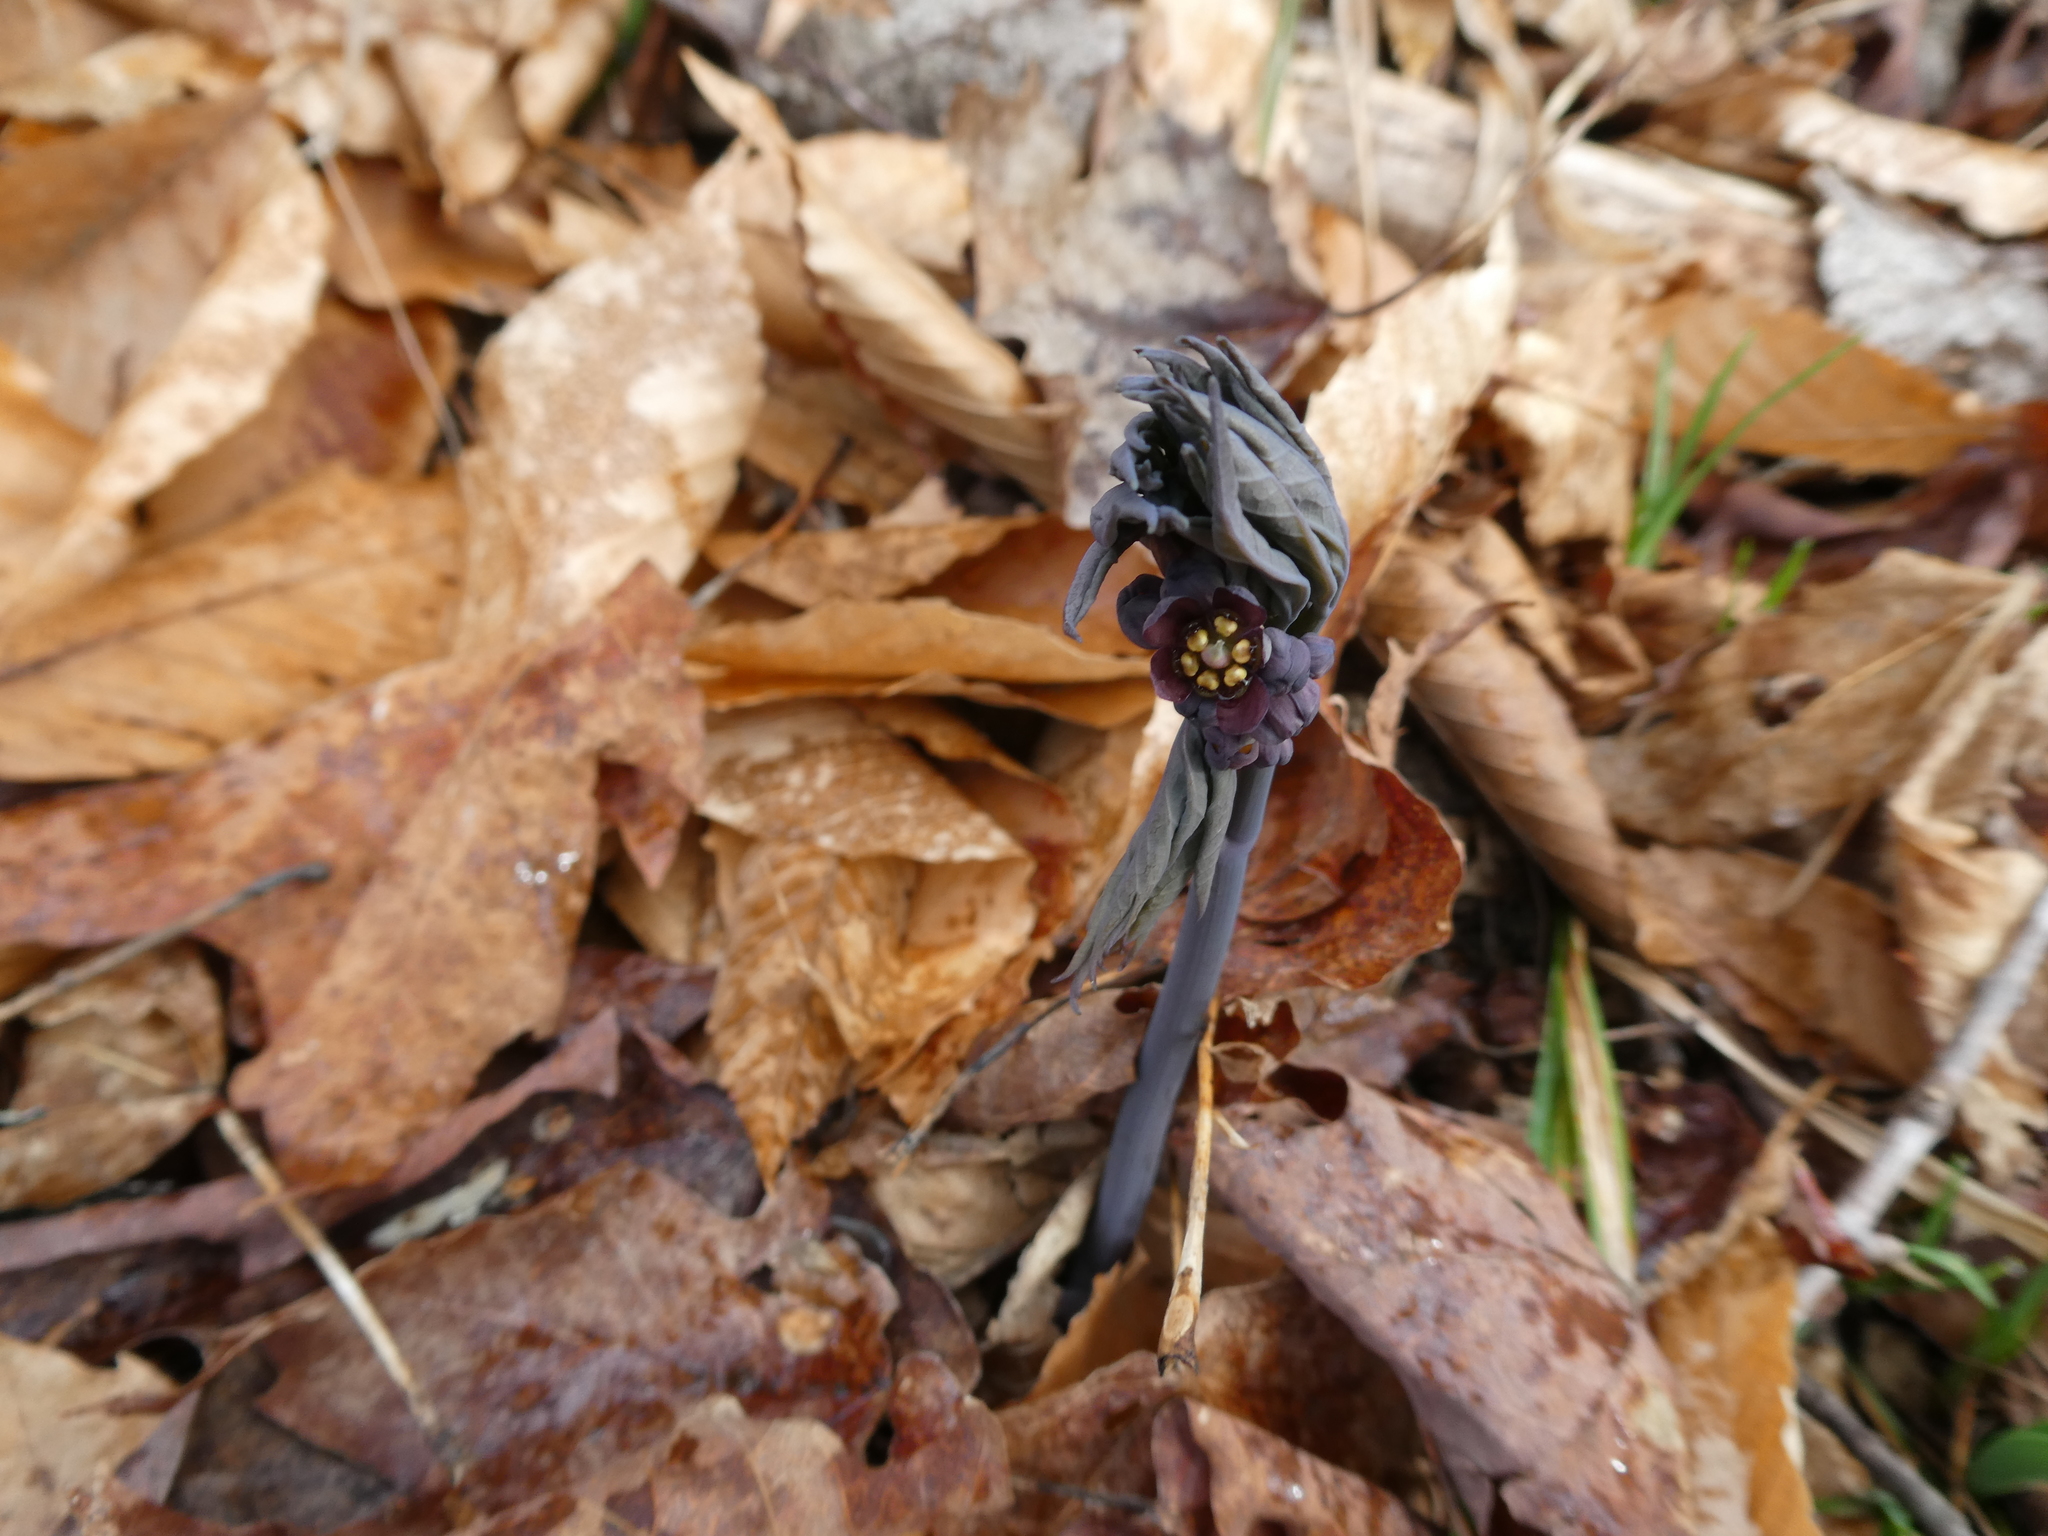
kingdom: Plantae
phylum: Tracheophyta
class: Magnoliopsida
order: Ranunculales
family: Berberidaceae
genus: Caulophyllum
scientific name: Caulophyllum giganteum
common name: Blue cohosh
